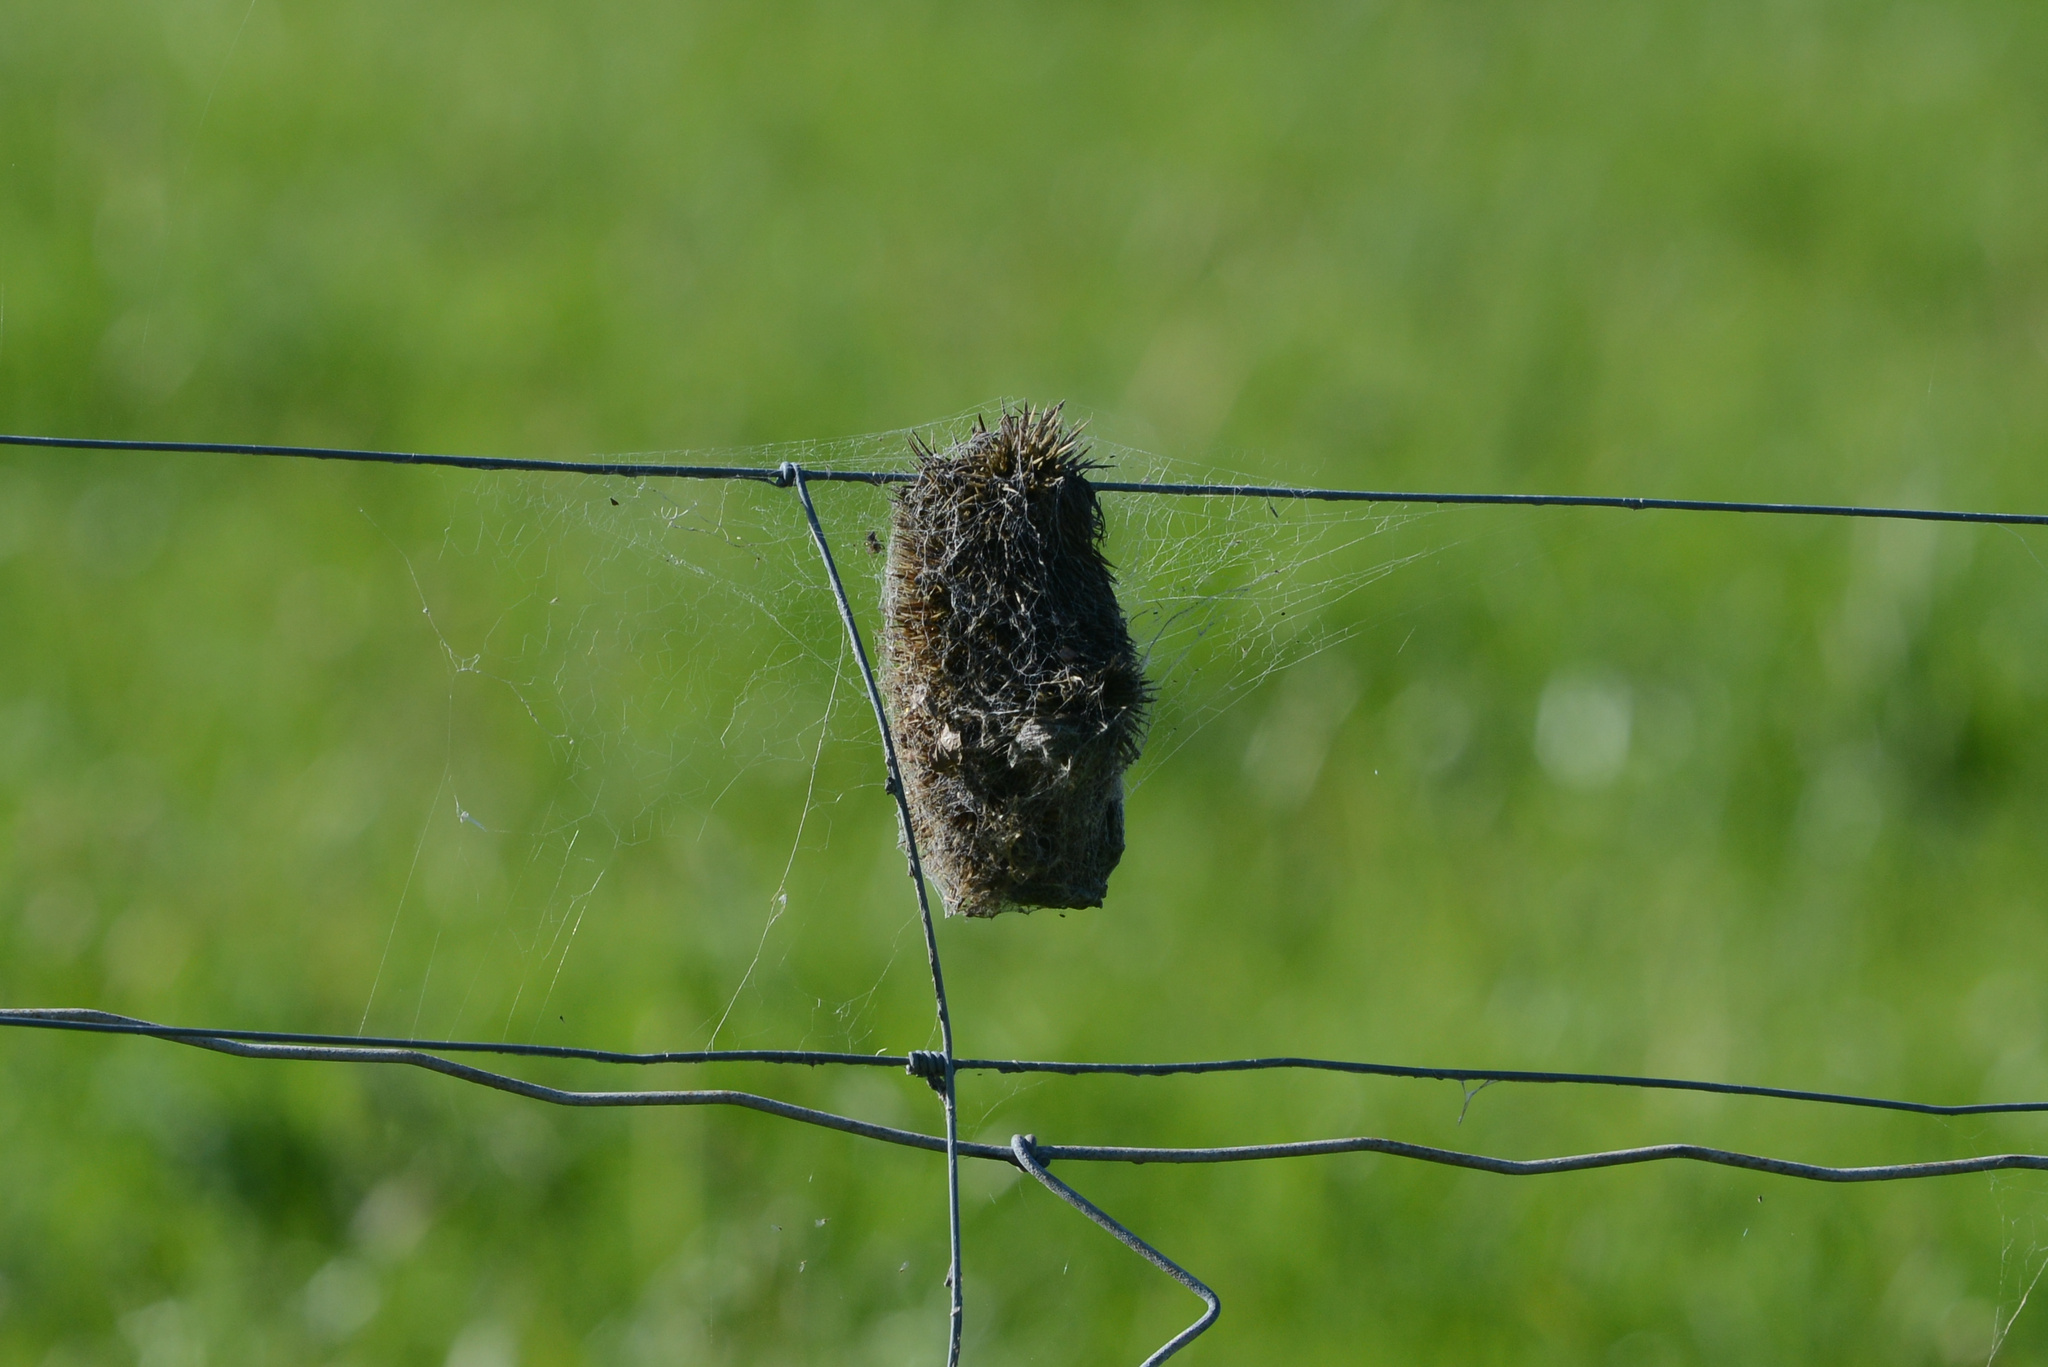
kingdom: Animalia
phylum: Chordata
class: Mammalia
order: Erinaceomorpha
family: Erinaceidae
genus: Erinaceus
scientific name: Erinaceus europaeus
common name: West european hedgehog
